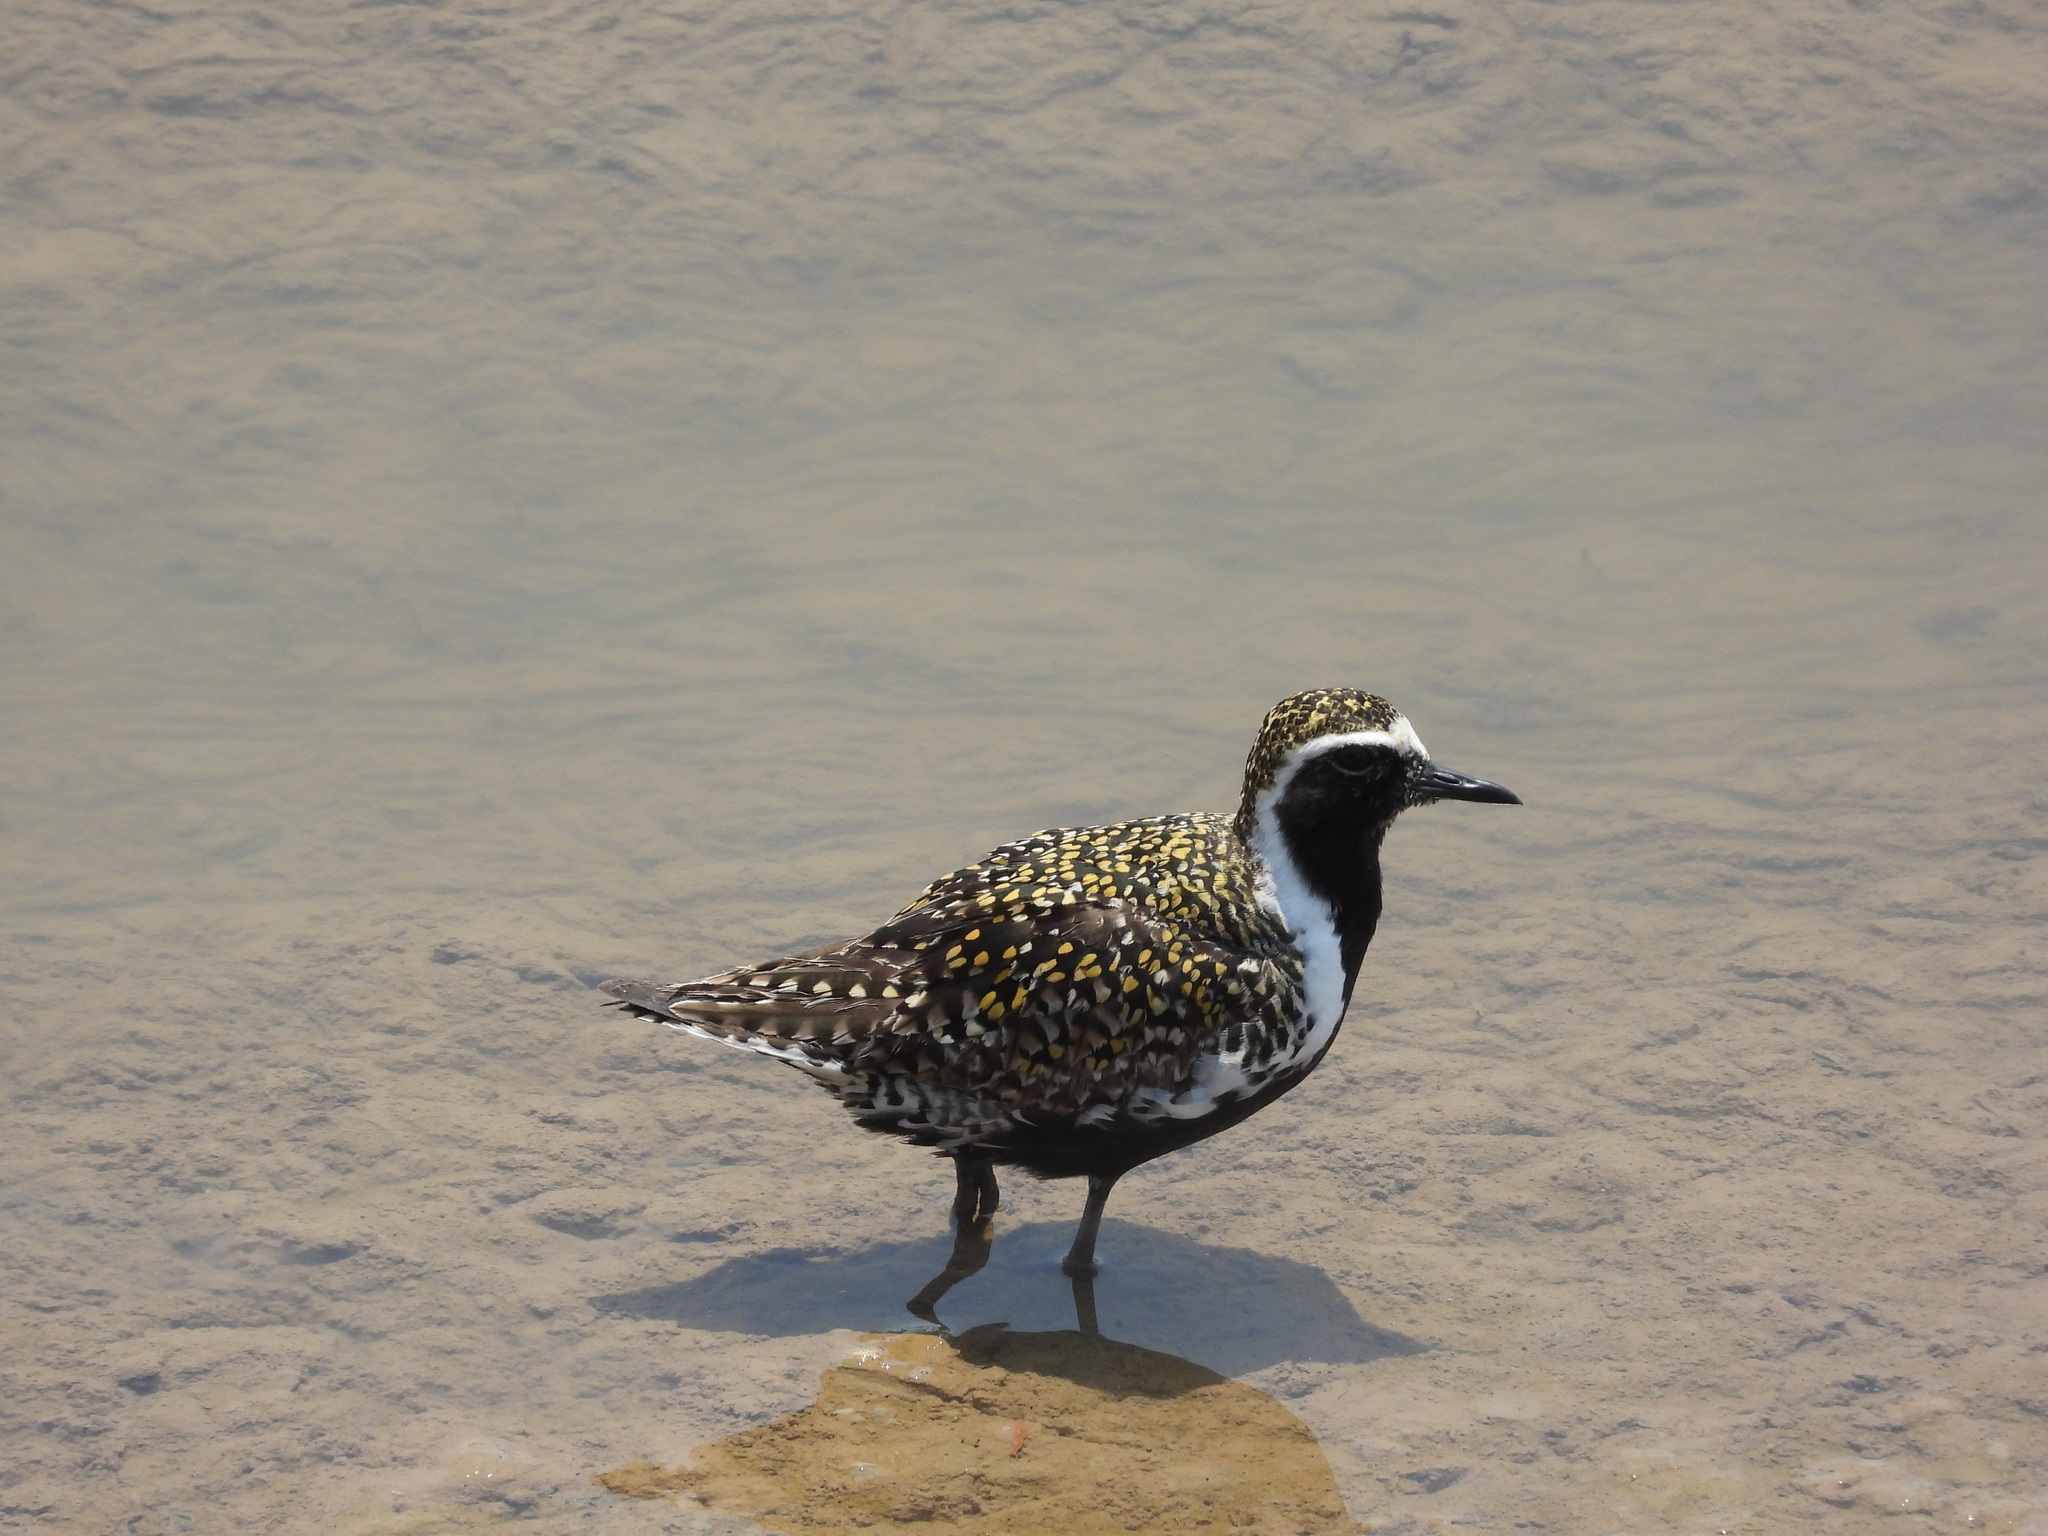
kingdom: Animalia
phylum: Chordata
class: Aves
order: Charadriiformes
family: Charadriidae
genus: Pluvialis
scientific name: Pluvialis fulva
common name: Pacific golden plover
